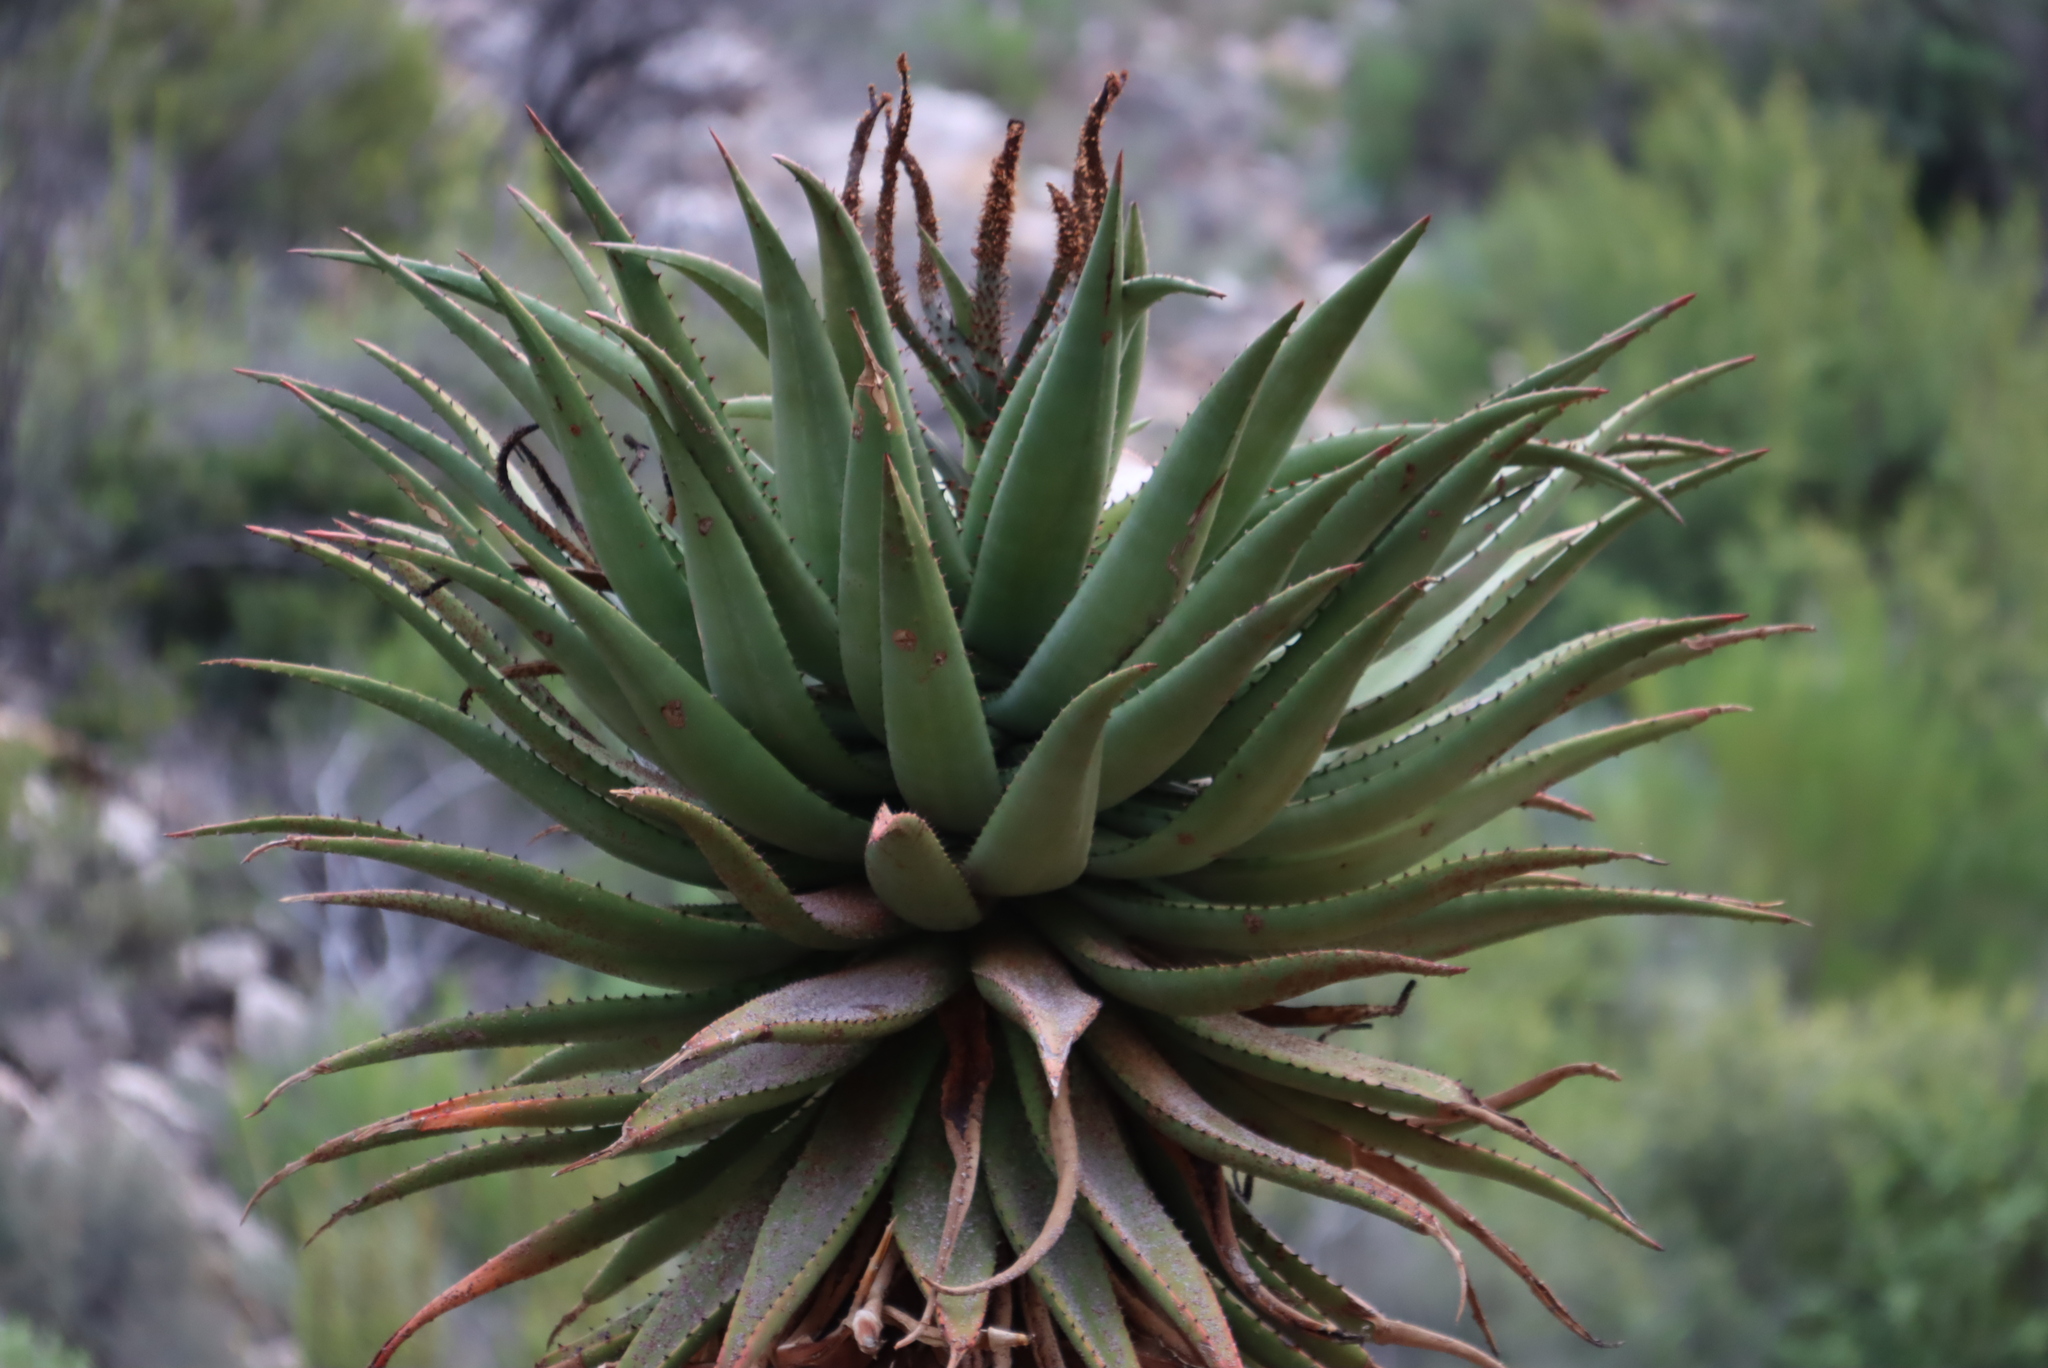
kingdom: Plantae
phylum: Tracheophyta
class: Liliopsida
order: Asparagales
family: Asphodelaceae
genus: Aloe
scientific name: Aloe ferox
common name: Bitter aloe
